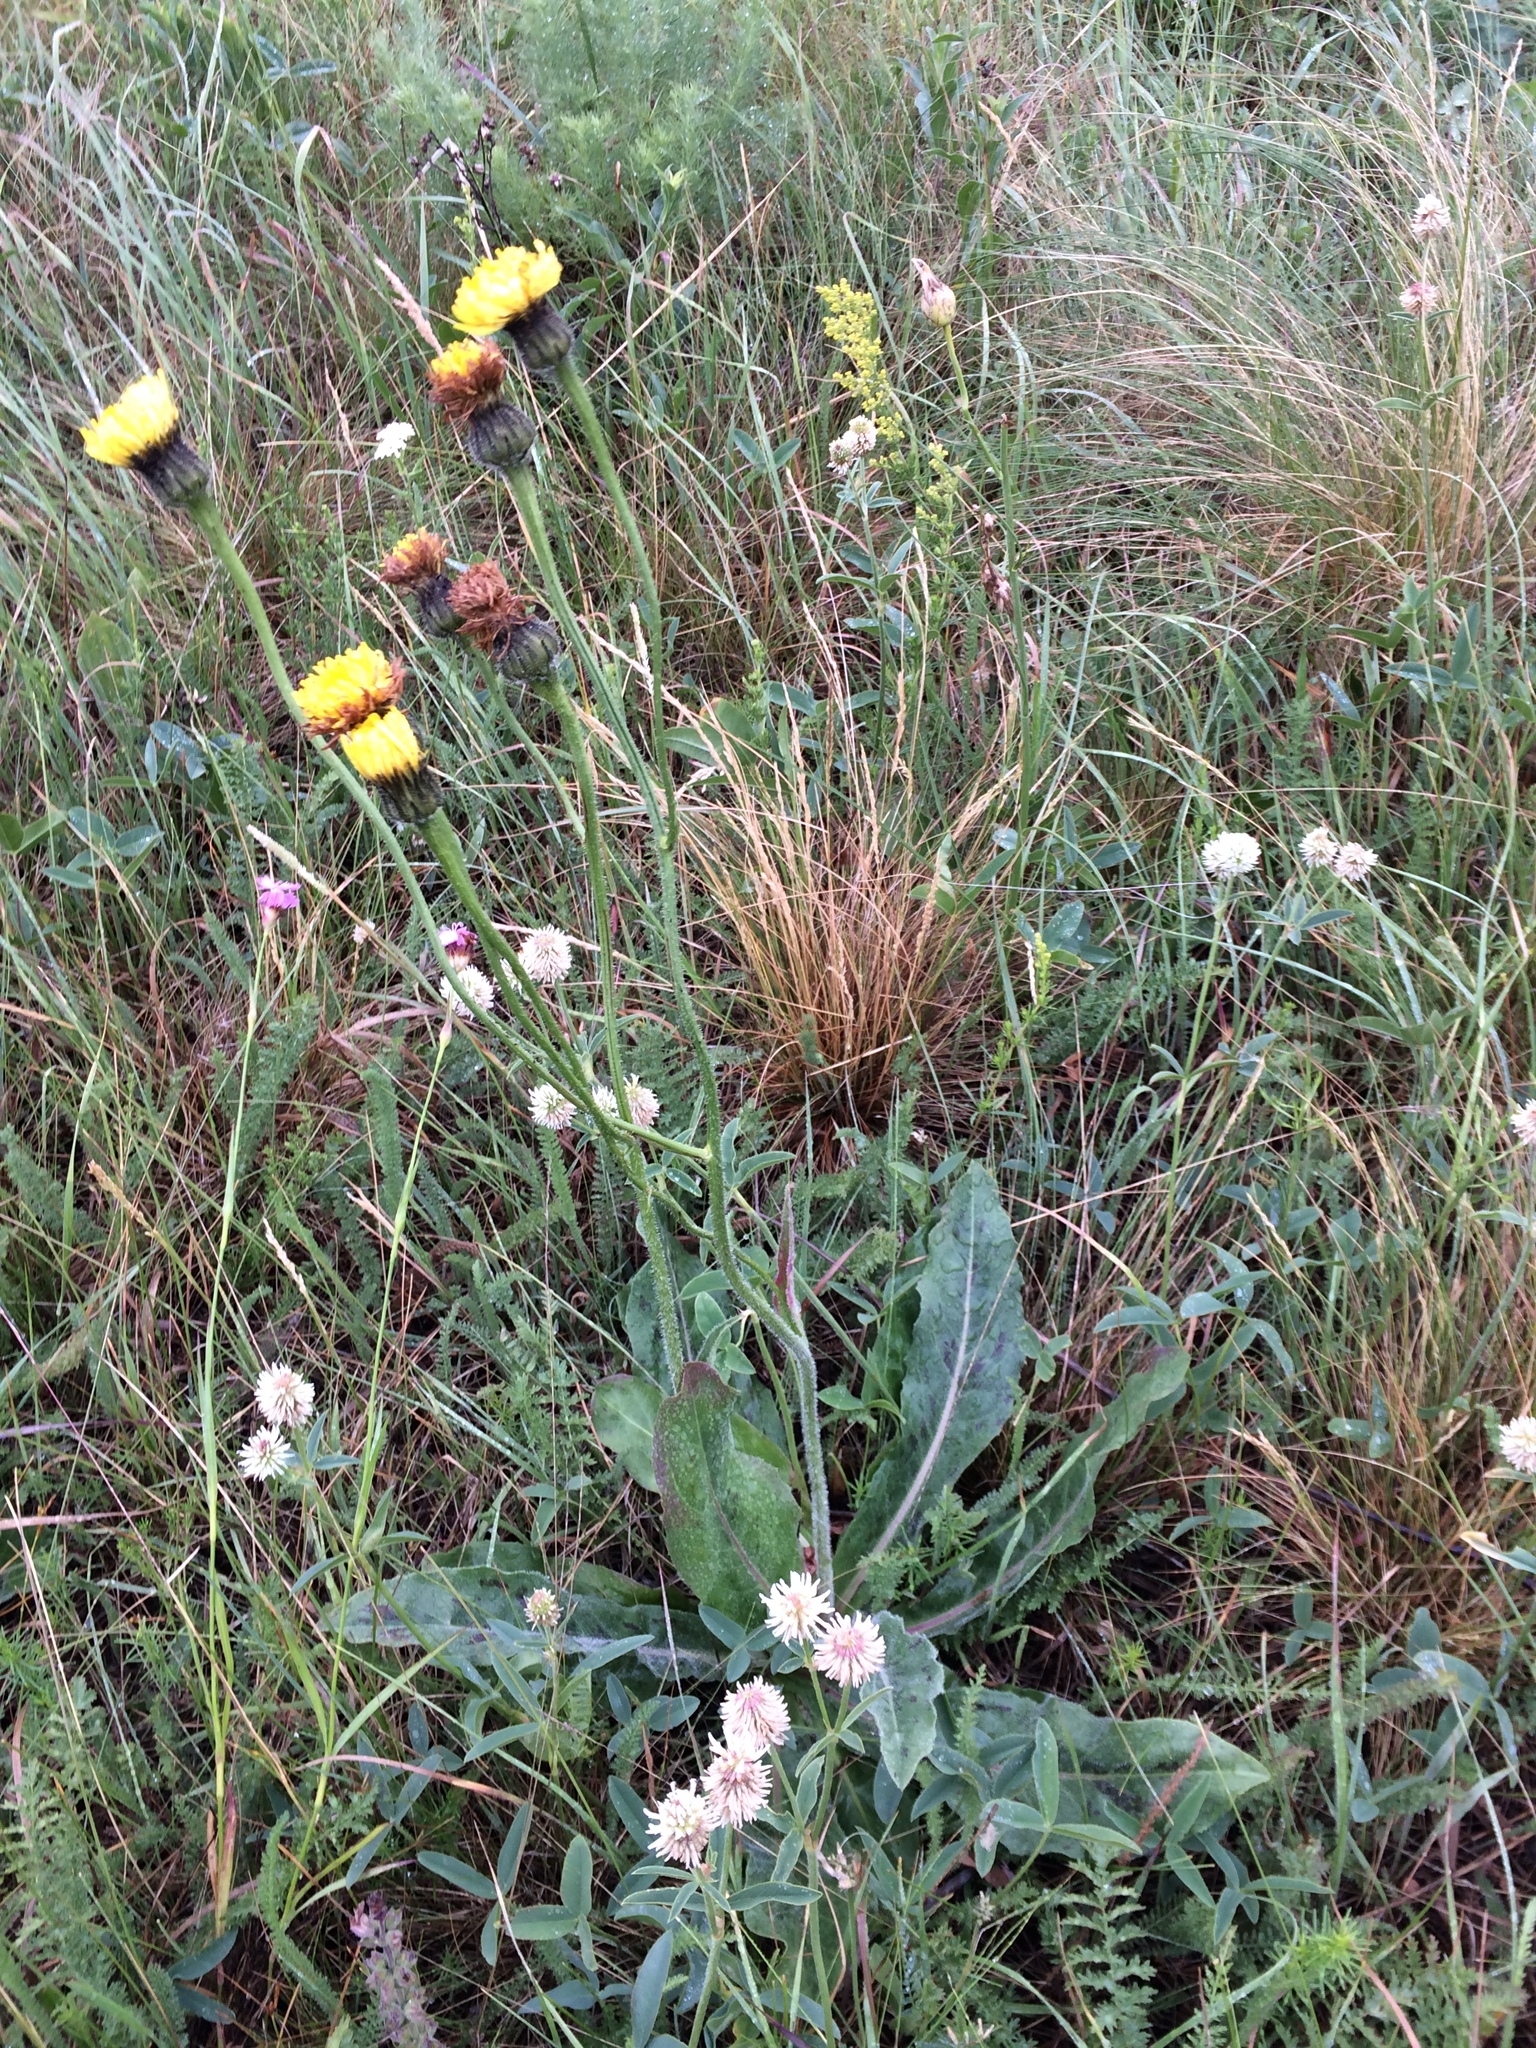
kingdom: Plantae
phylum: Tracheophyta
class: Magnoliopsida
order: Asterales
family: Asteraceae
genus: Trommsdorffia
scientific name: Trommsdorffia maculata
